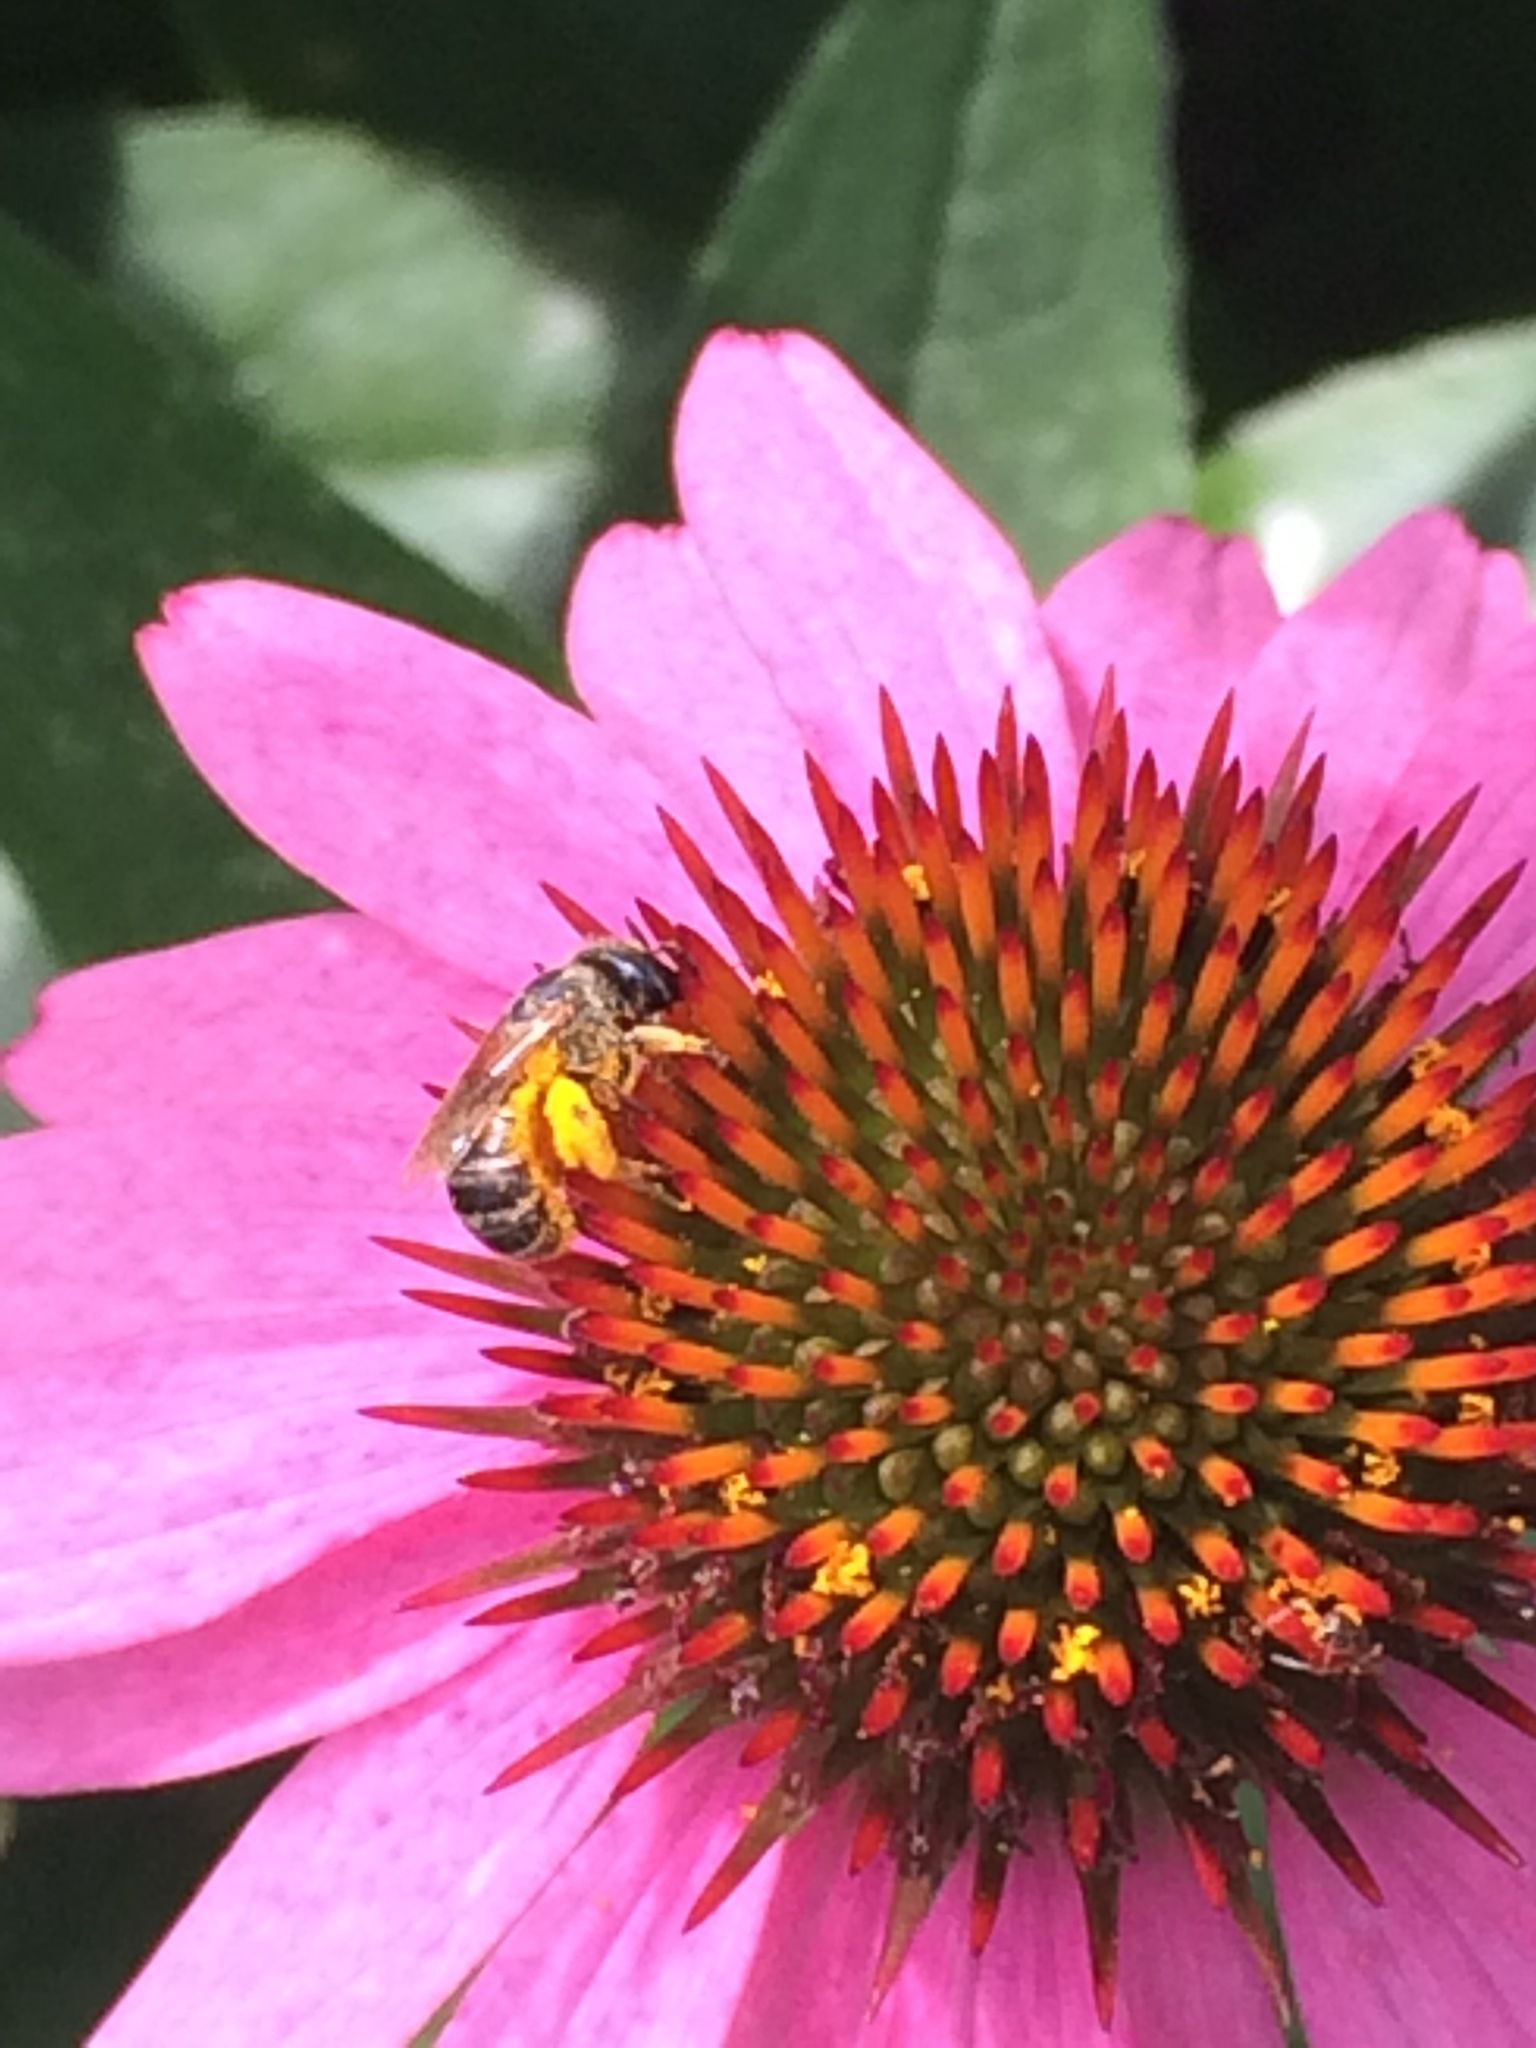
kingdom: Animalia
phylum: Arthropoda
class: Insecta
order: Hymenoptera
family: Halictidae
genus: Halictus
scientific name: Halictus ligatus
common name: Ligated furrow bee
